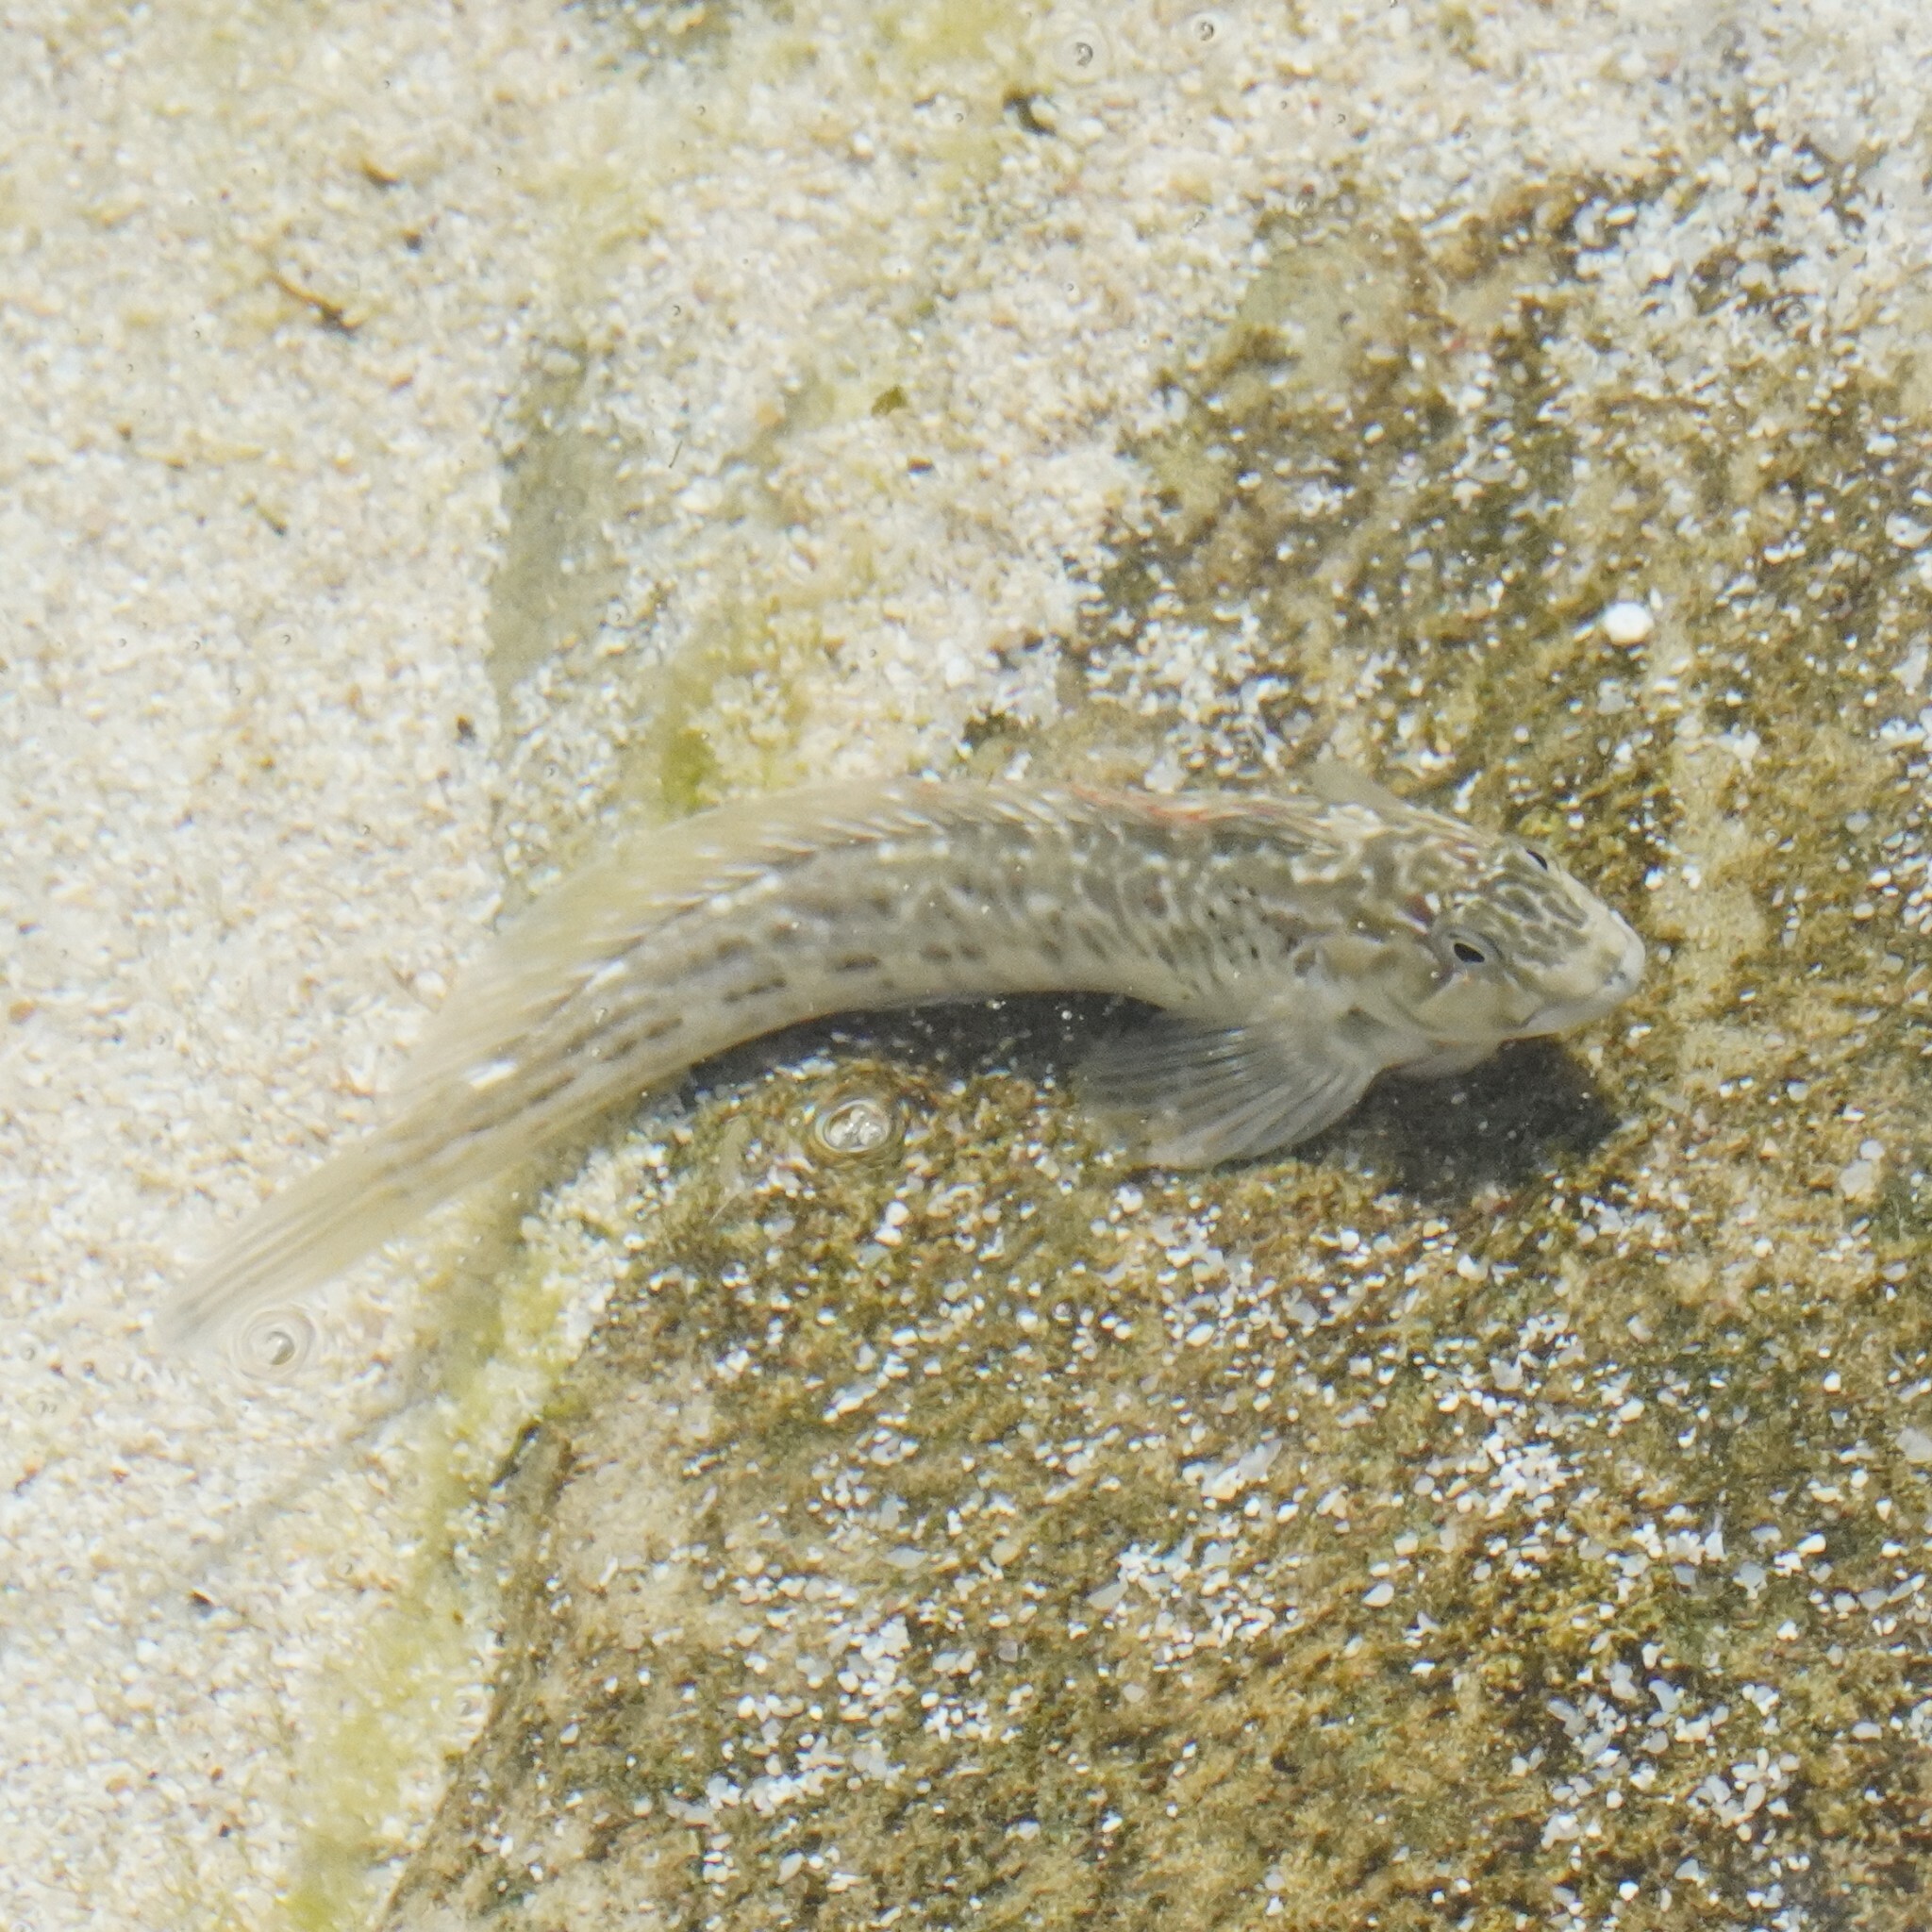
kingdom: Animalia
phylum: Chordata
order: Perciformes
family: Blenniidae
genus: Parablennius
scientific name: Parablennius parvicornis
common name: Rock-pool blenny
